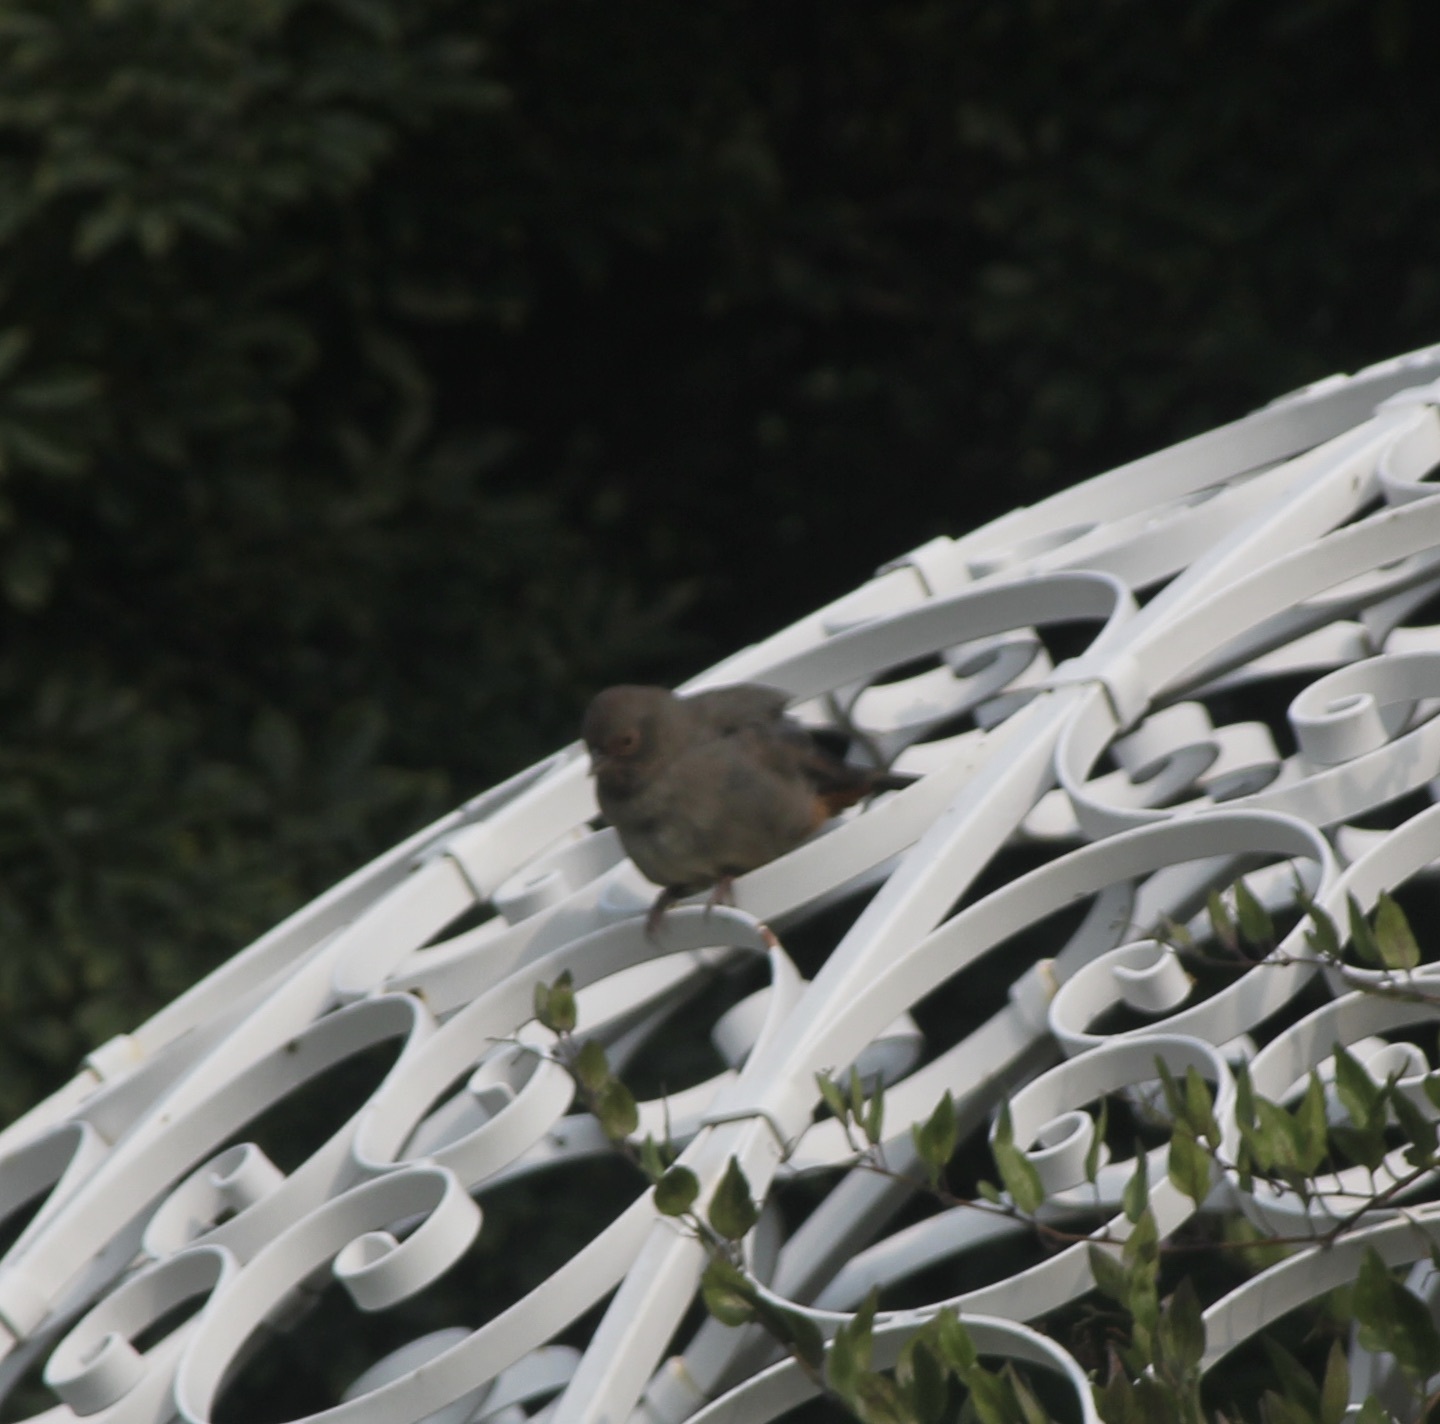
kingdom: Animalia
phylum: Chordata
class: Aves
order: Passeriformes
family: Passerellidae
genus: Melozone
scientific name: Melozone crissalis
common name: California towhee
